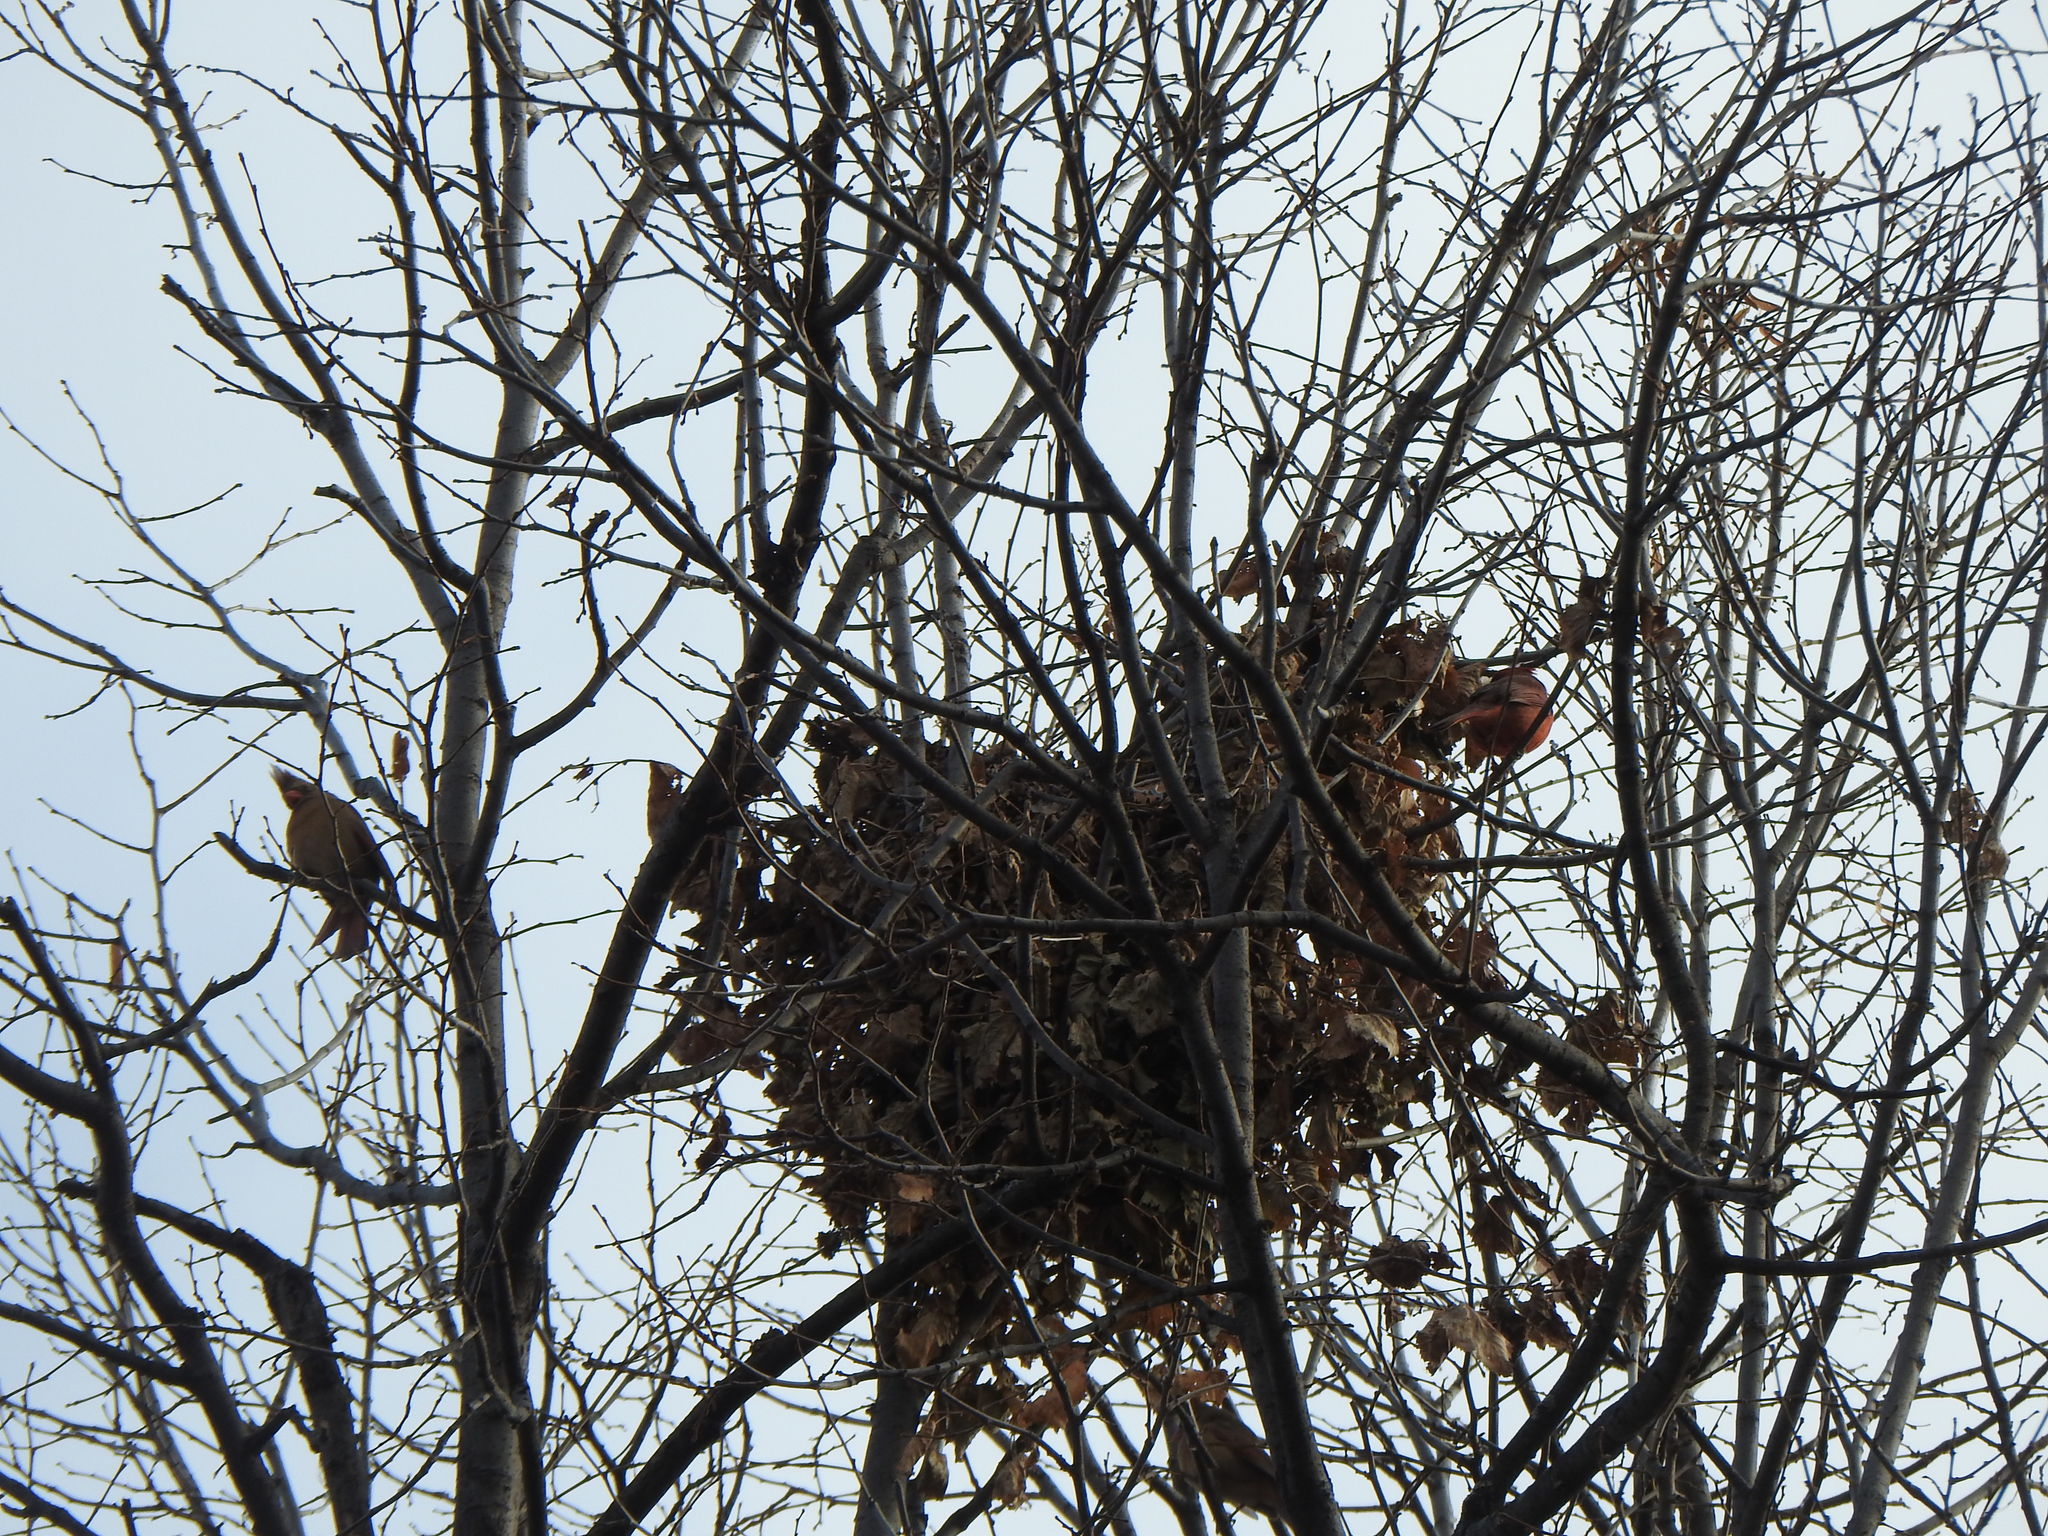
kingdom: Animalia
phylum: Chordata
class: Aves
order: Passeriformes
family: Cardinalidae
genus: Cardinalis
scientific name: Cardinalis cardinalis
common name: Northern cardinal
